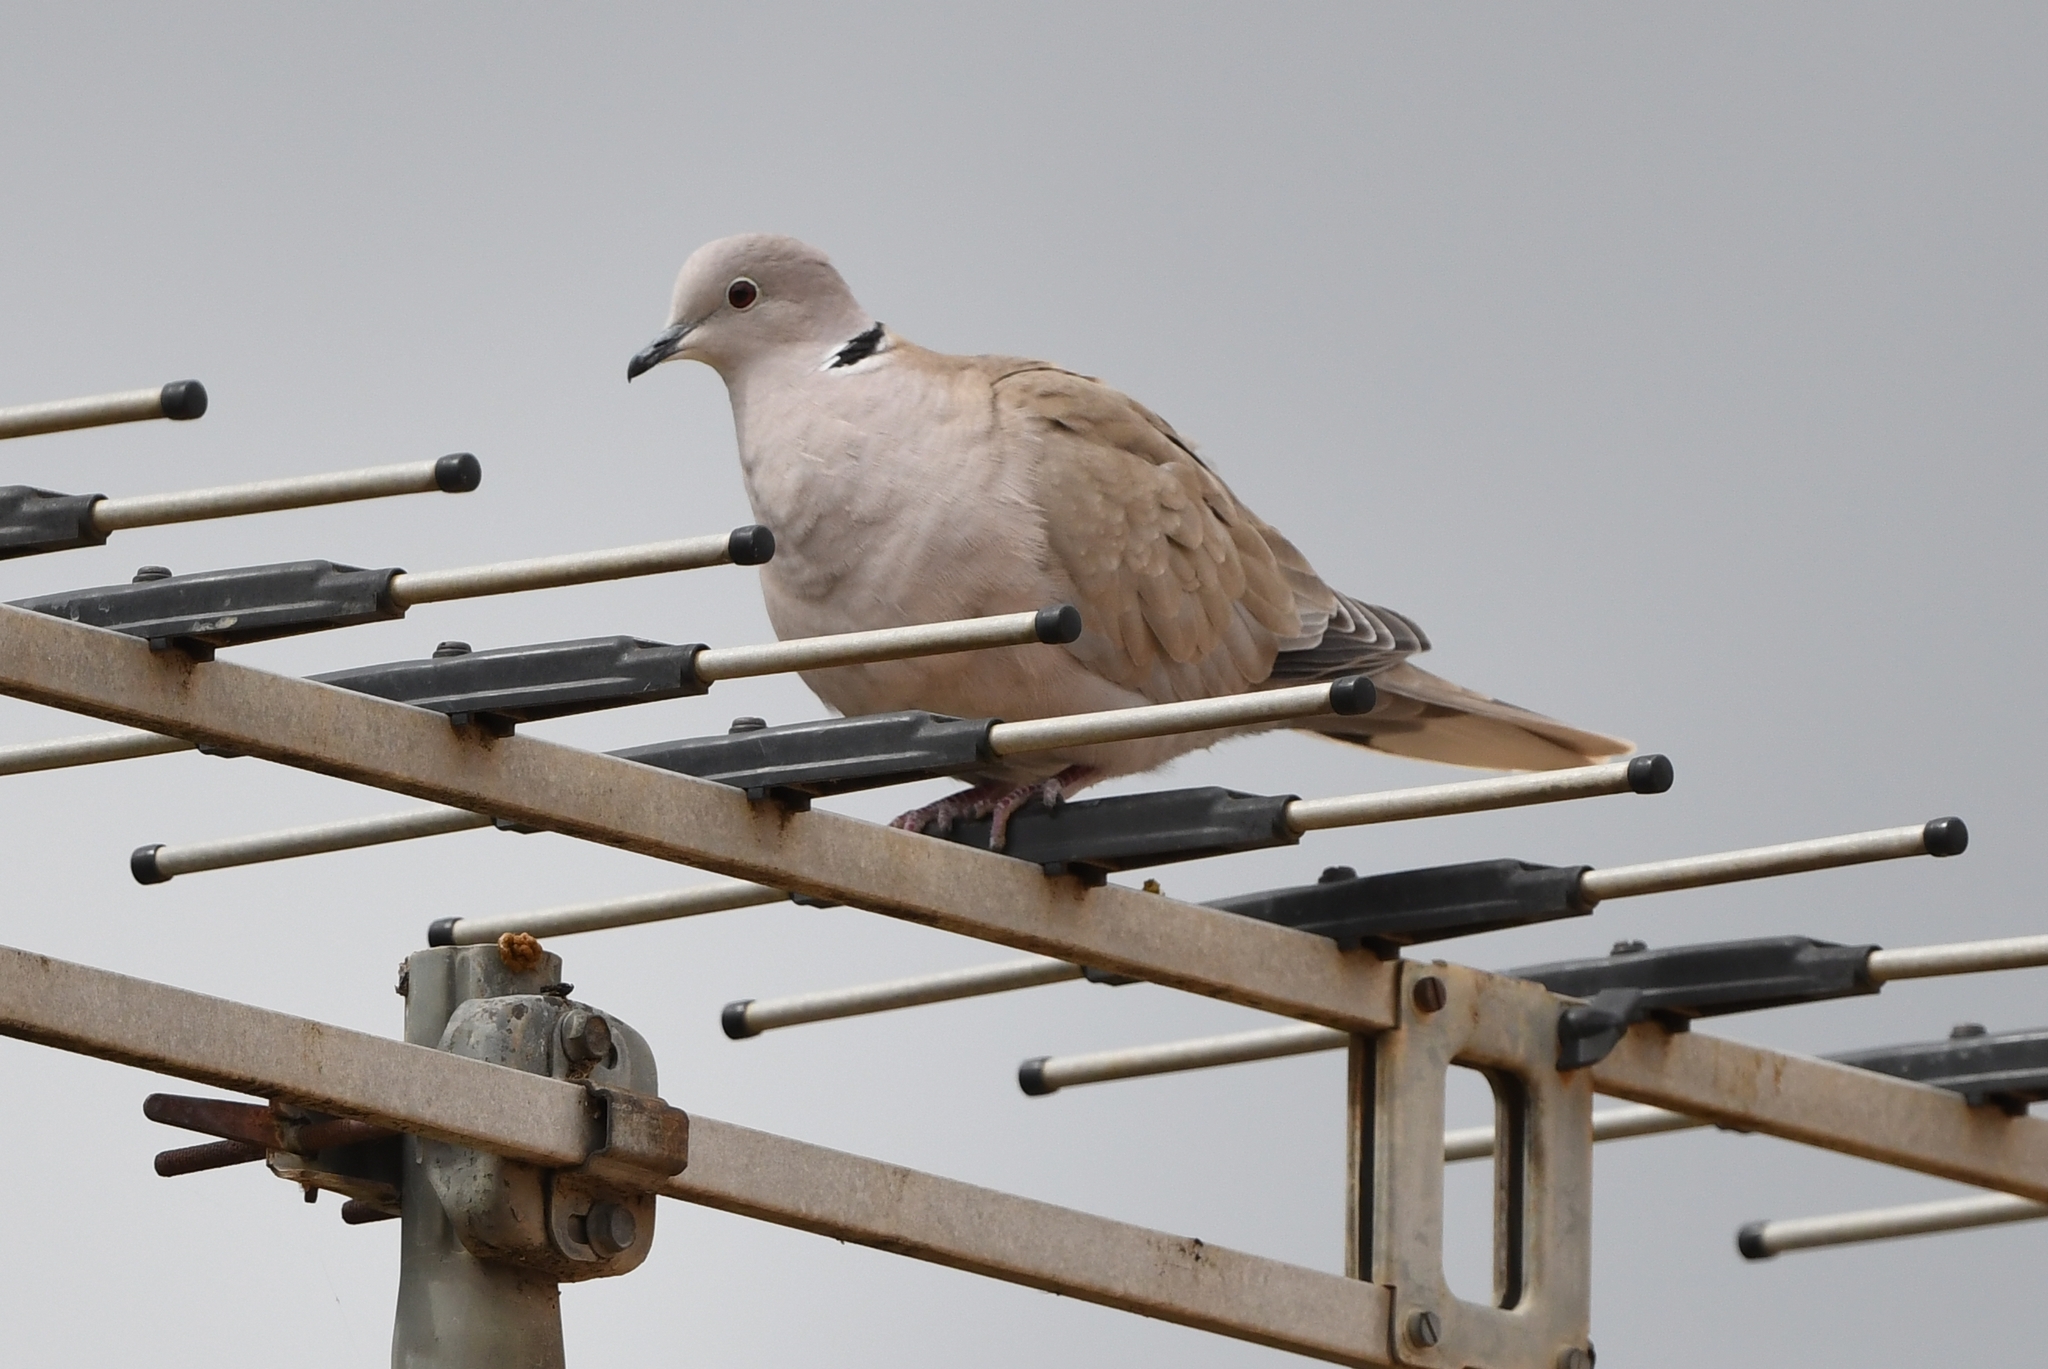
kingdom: Animalia
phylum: Chordata
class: Aves
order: Columbiformes
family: Columbidae
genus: Streptopelia
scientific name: Streptopelia decaocto
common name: Eurasian collared dove
